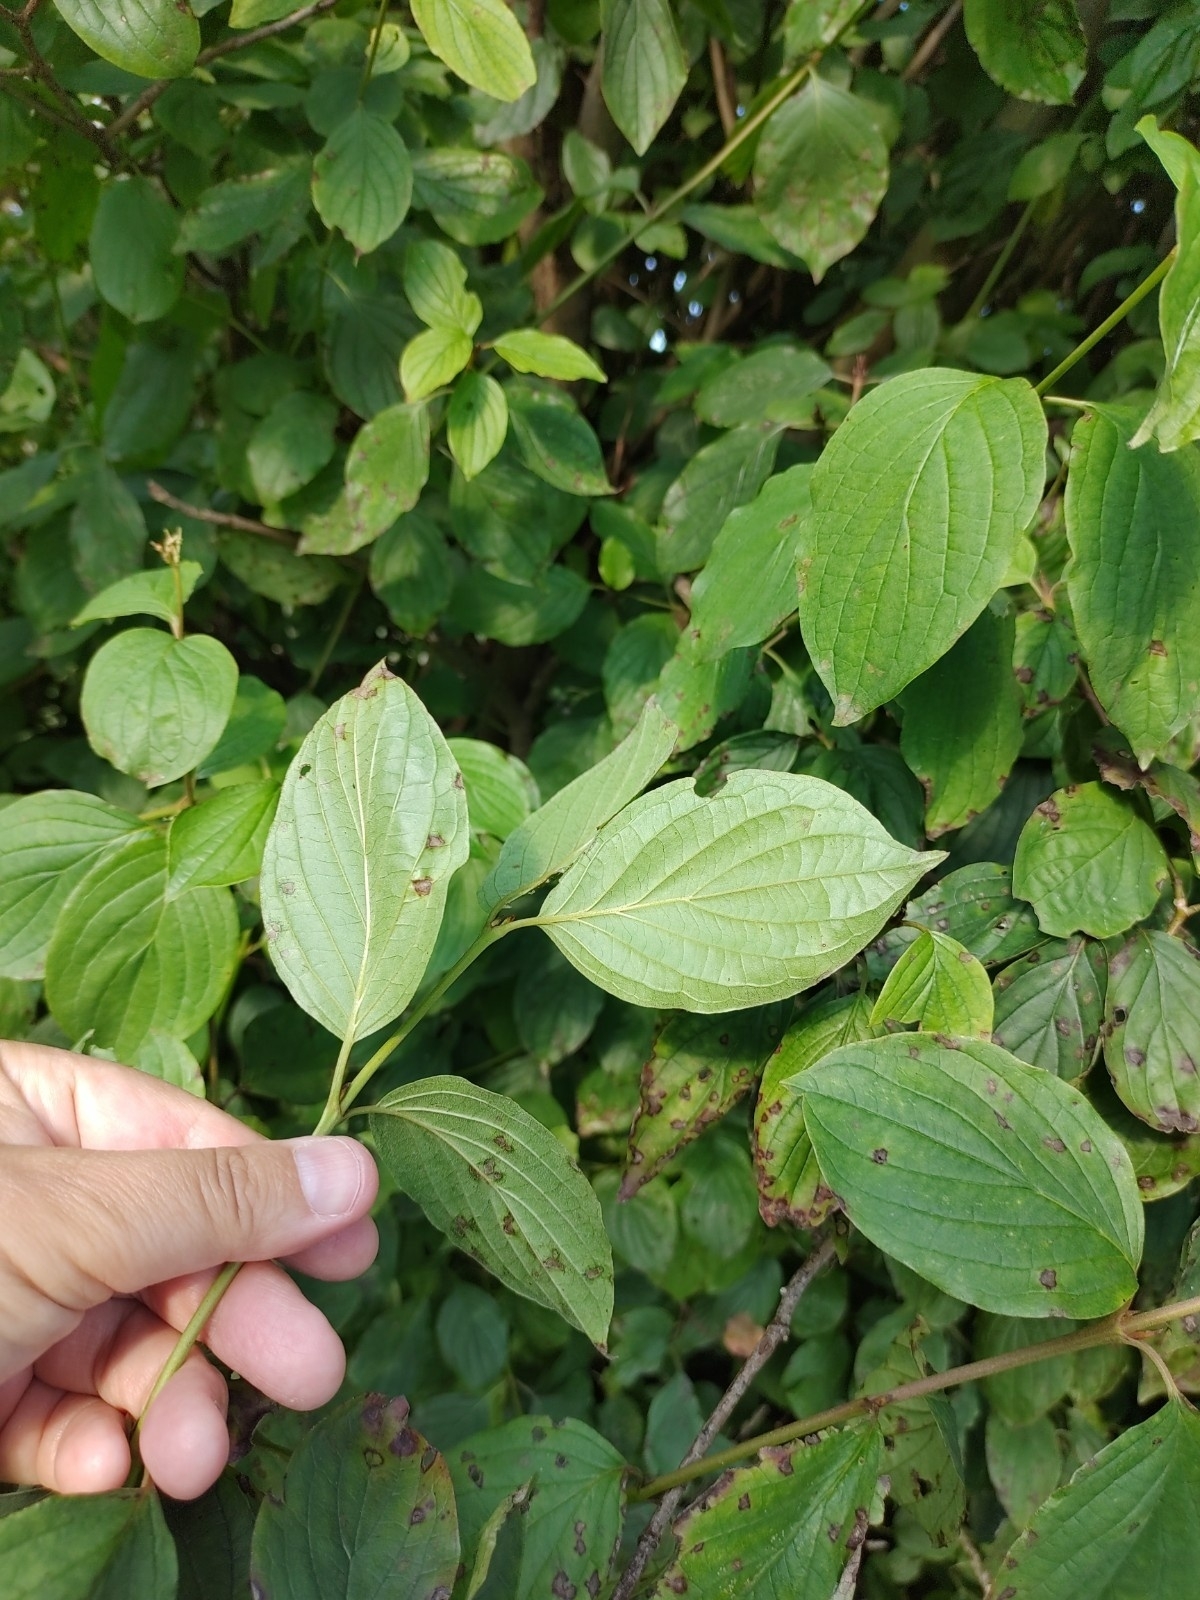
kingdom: Plantae
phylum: Tracheophyta
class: Magnoliopsida
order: Cornales
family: Cornaceae
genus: Cornus
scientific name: Cornus sanguinea
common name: Dogwood
